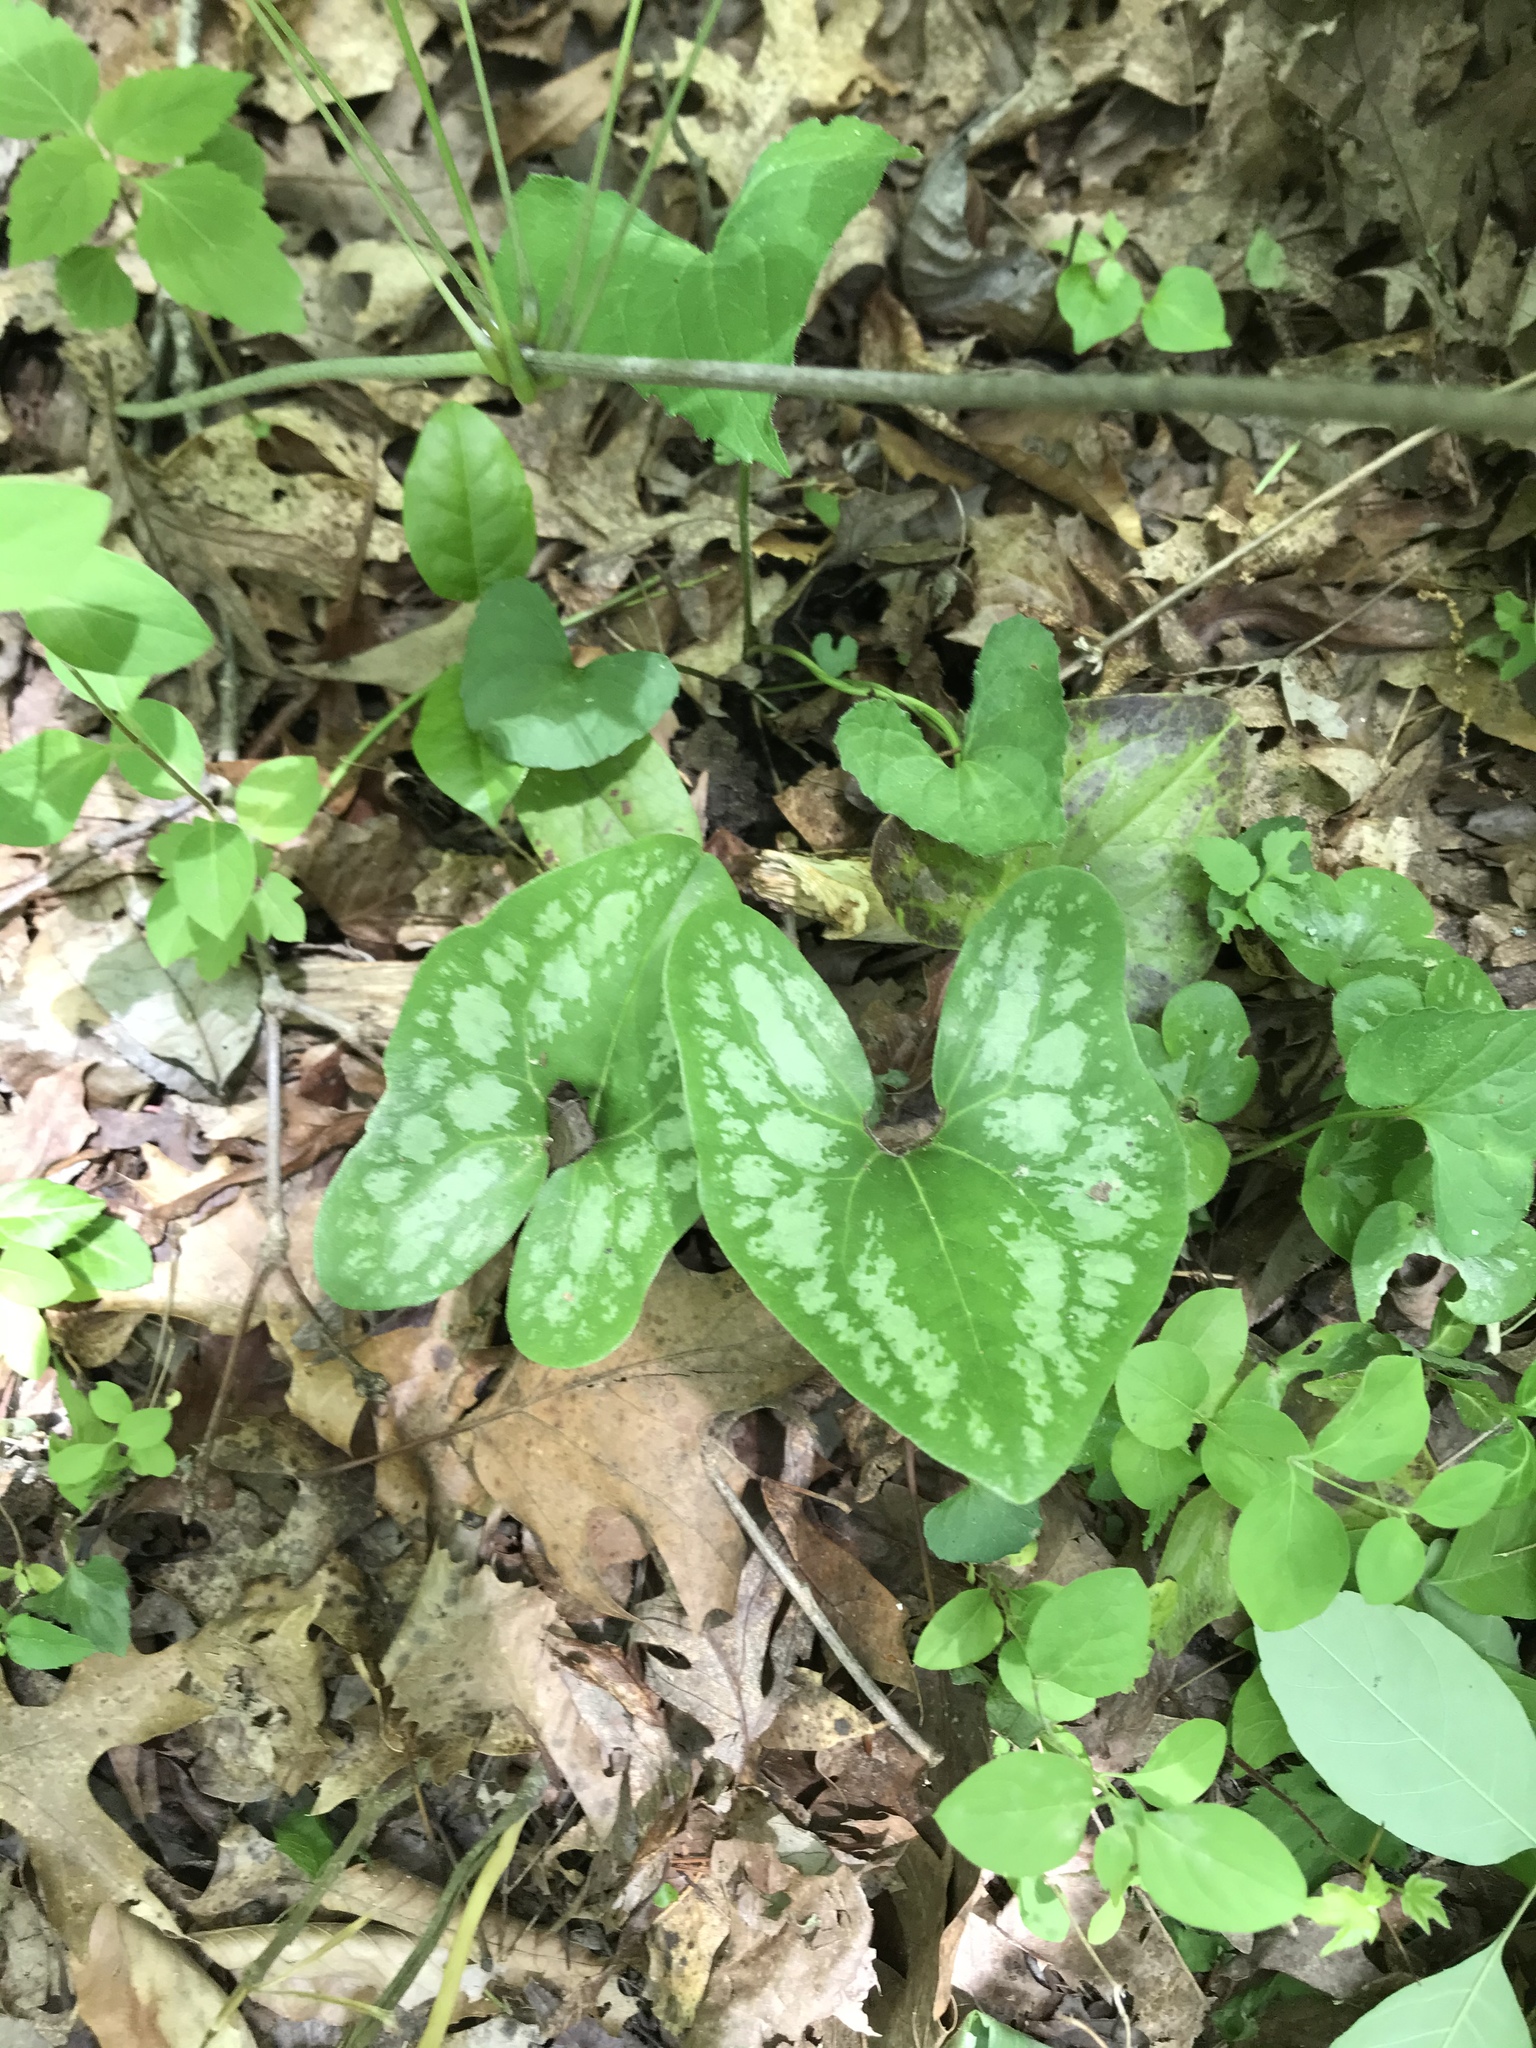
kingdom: Plantae
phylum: Tracheophyta
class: Magnoliopsida
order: Piperales
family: Aristolochiaceae
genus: Hexastylis
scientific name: Hexastylis arifolia
